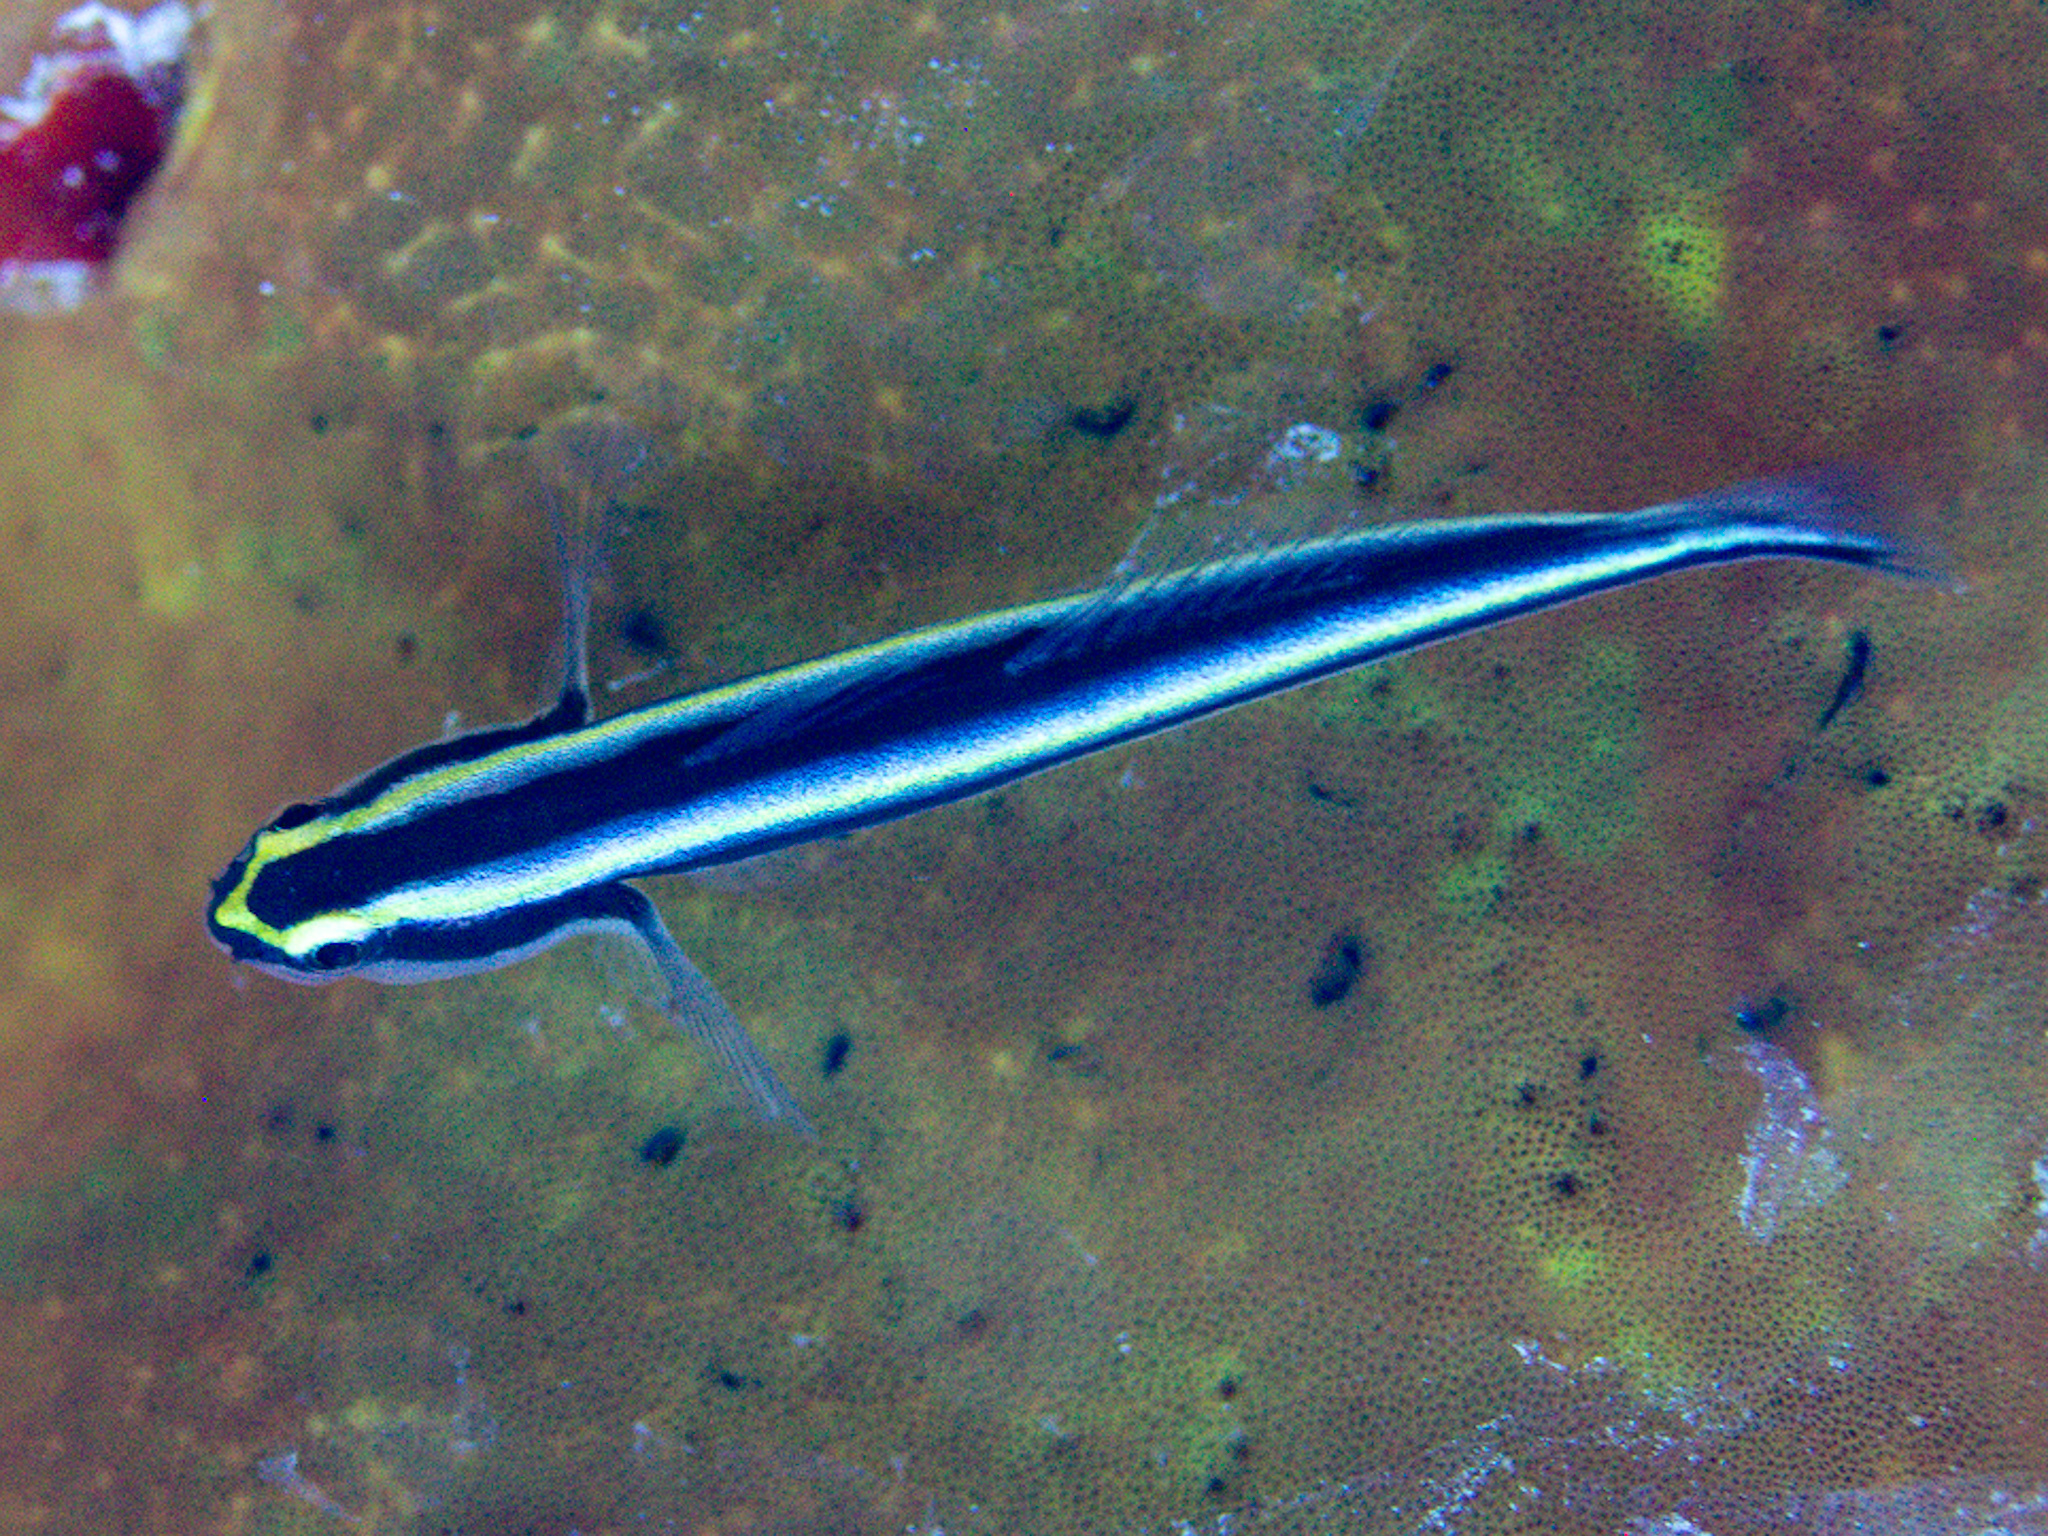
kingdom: Animalia
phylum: Chordata
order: Perciformes
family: Gobiidae
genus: Elacatinus
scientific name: Elacatinus cayman
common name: Cayman cleaner goby
